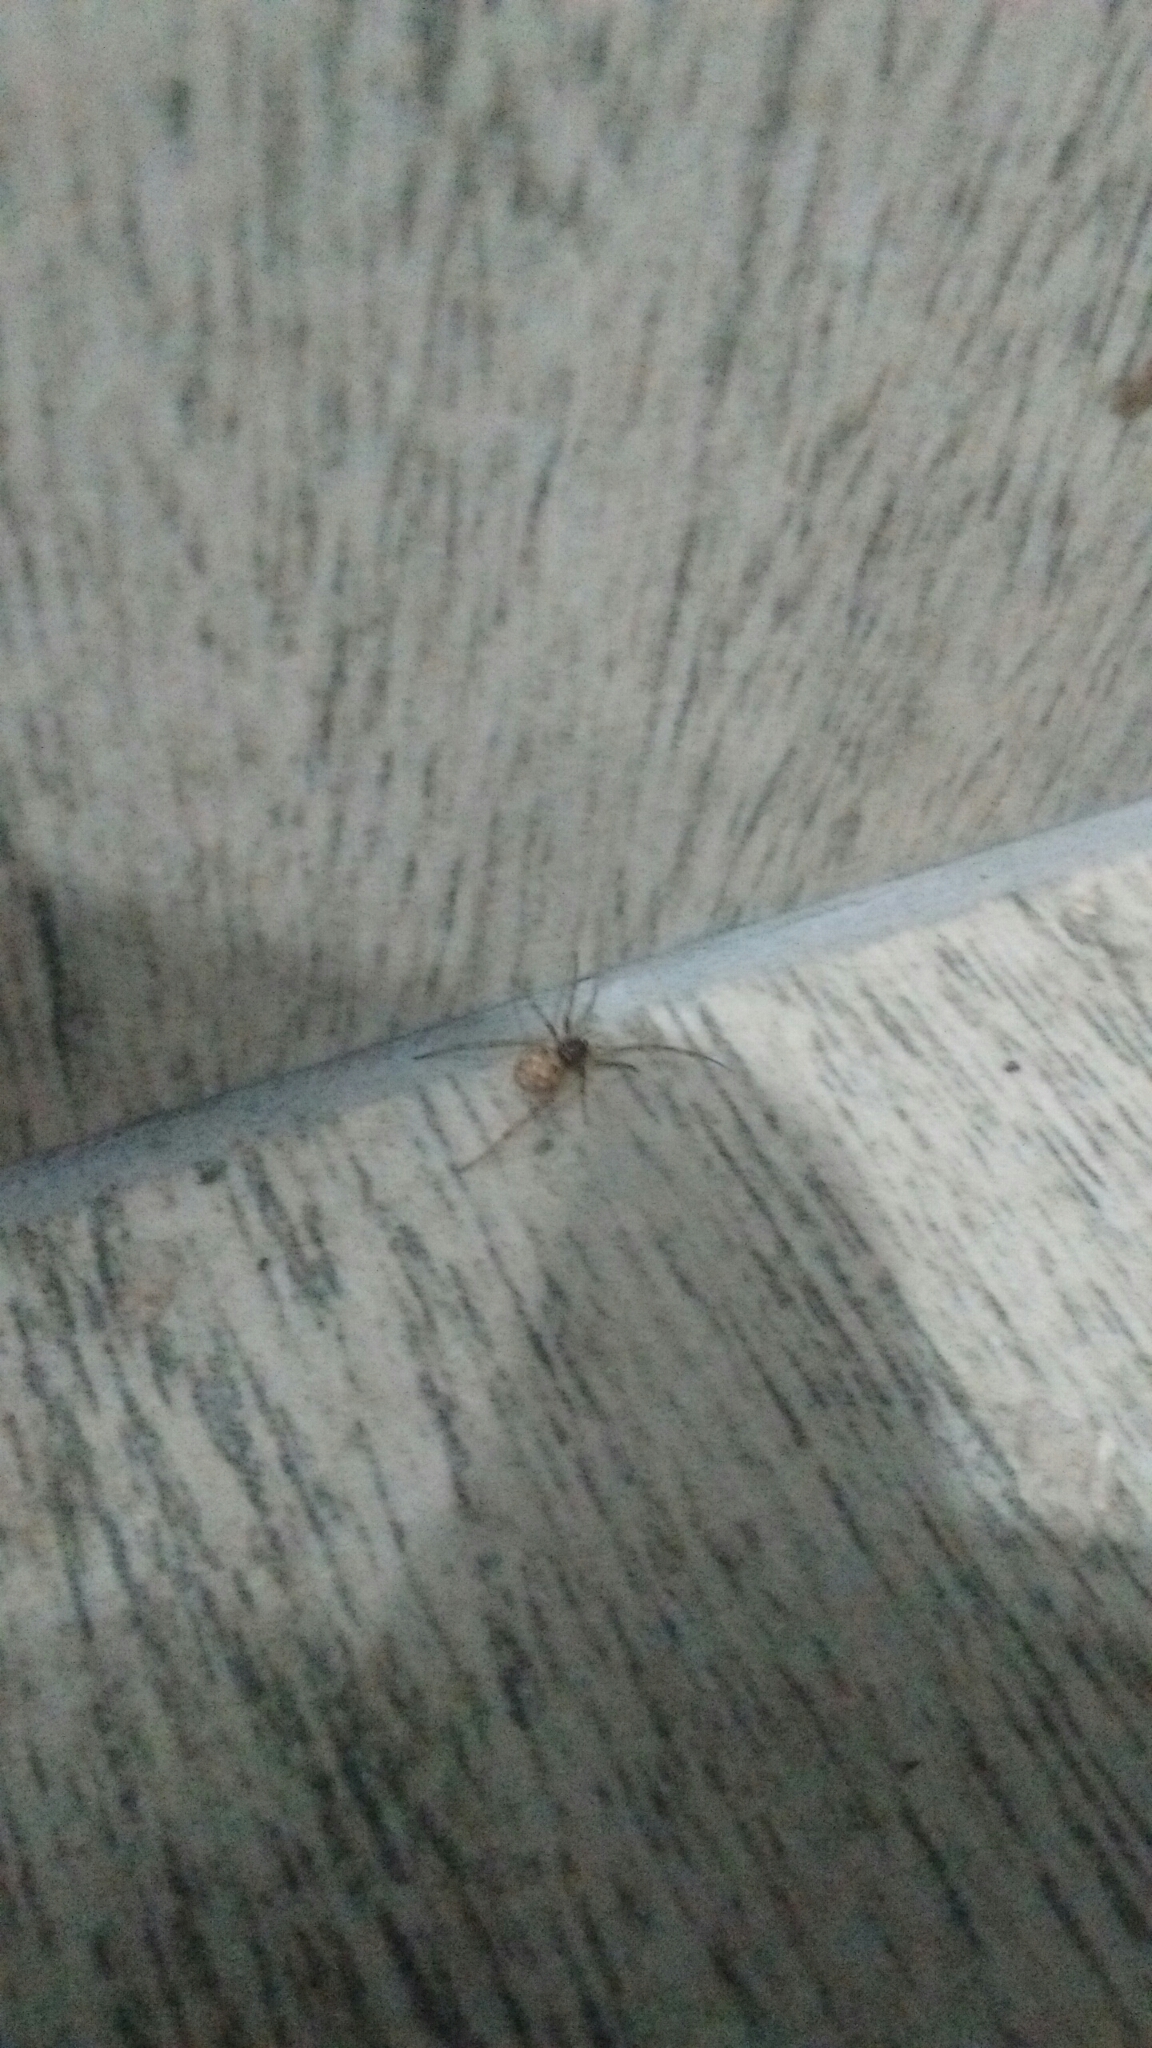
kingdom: Animalia
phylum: Arthropoda
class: Arachnida
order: Araneae
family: Theridiidae
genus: Steatoda
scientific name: Steatoda triangulosa
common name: Triangulate bud spider
